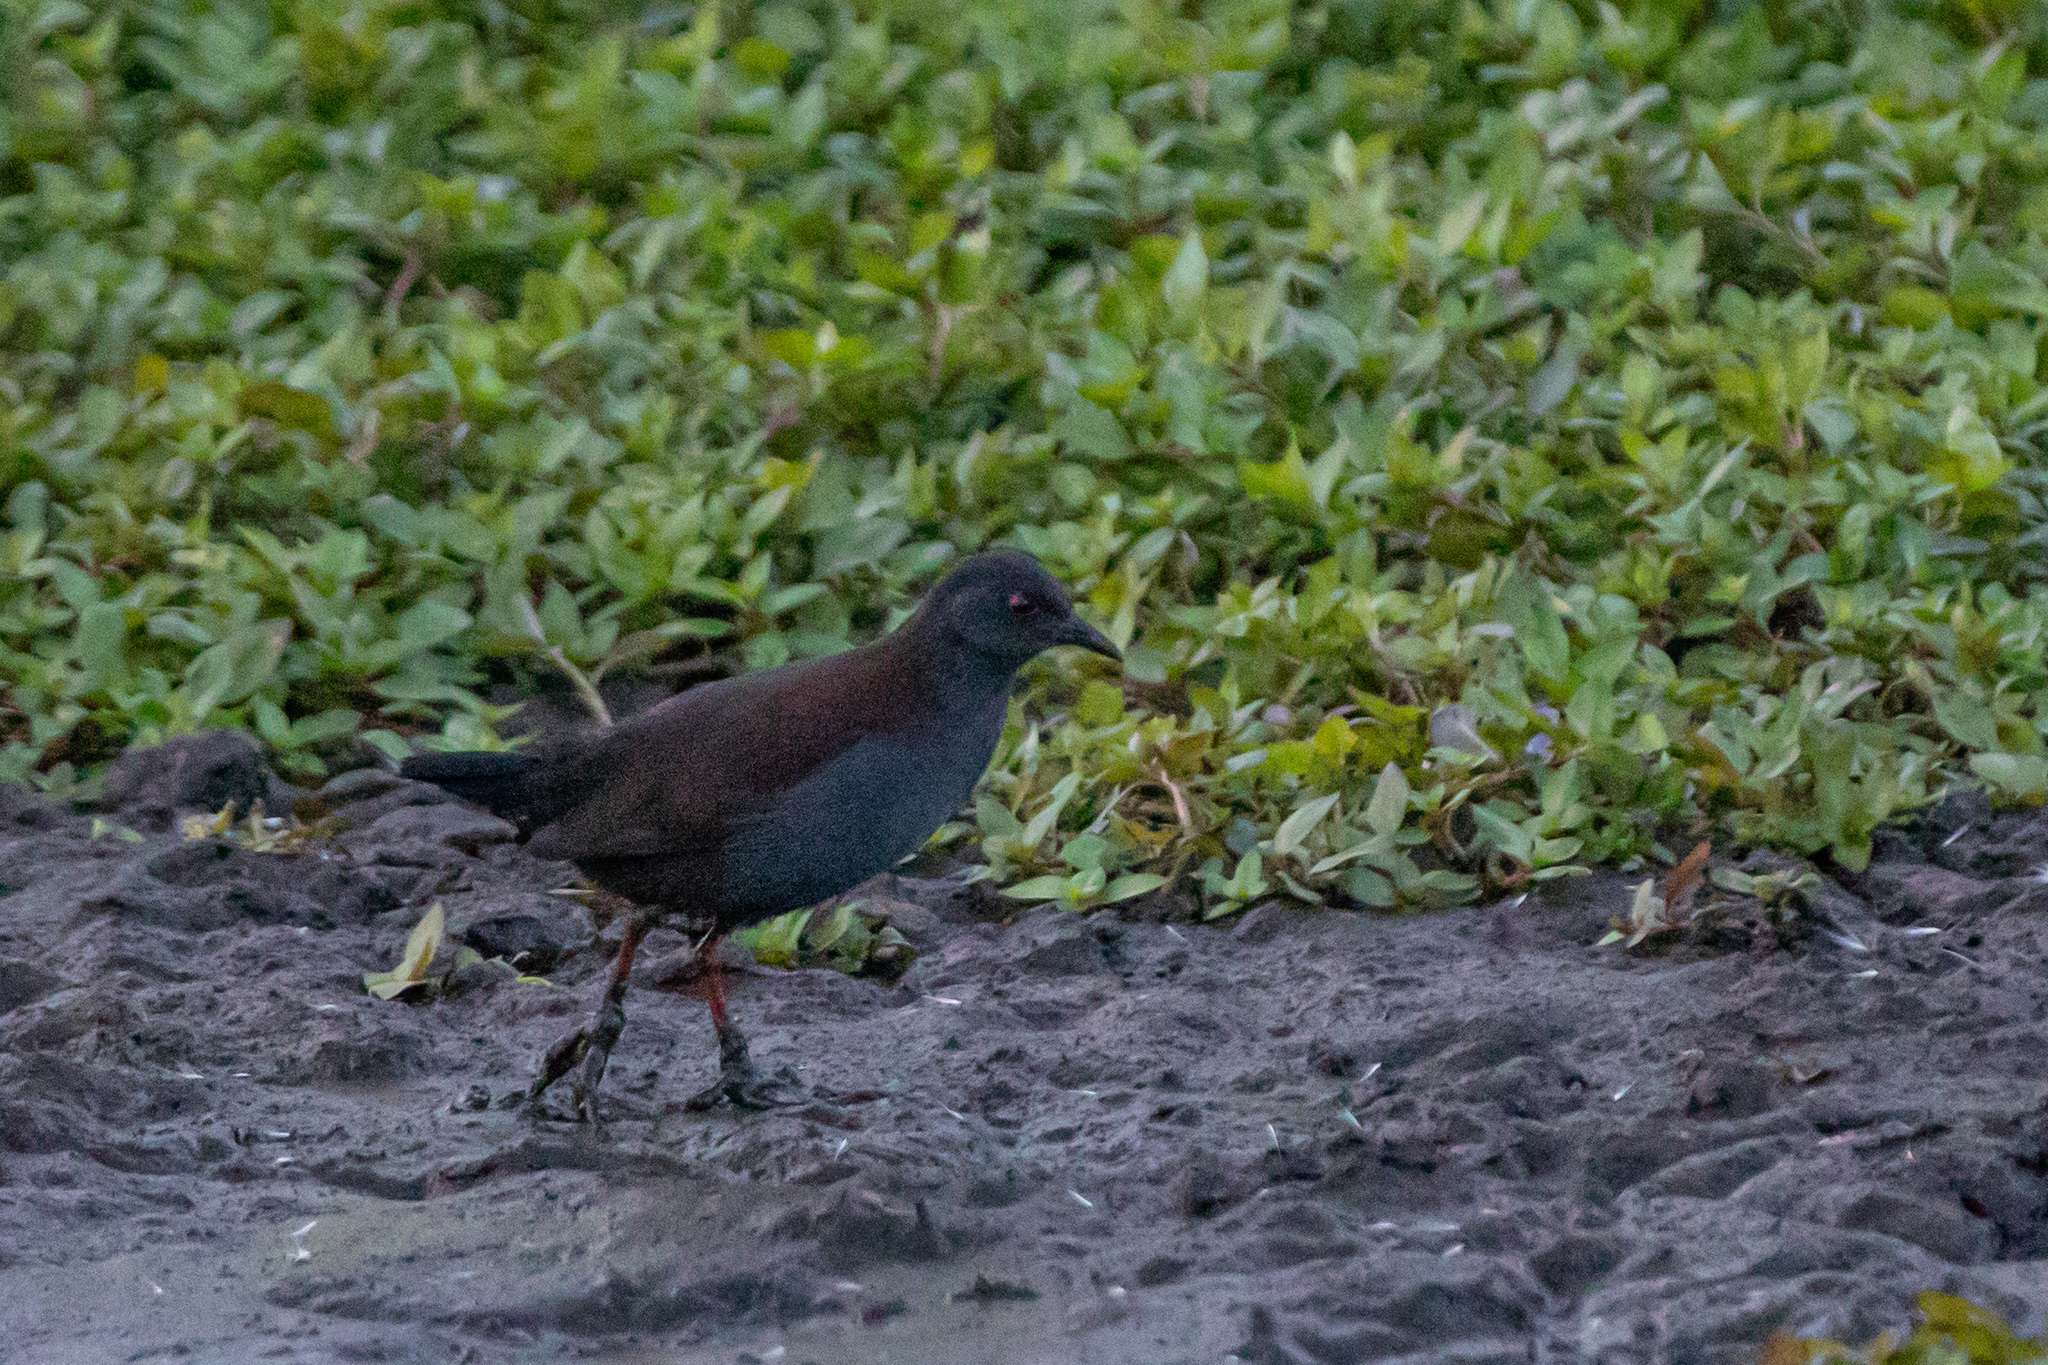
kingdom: Animalia
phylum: Chordata
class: Aves
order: Gruiformes
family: Rallidae
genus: Porzana
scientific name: Porzana tabuensis
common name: Spotless crake
